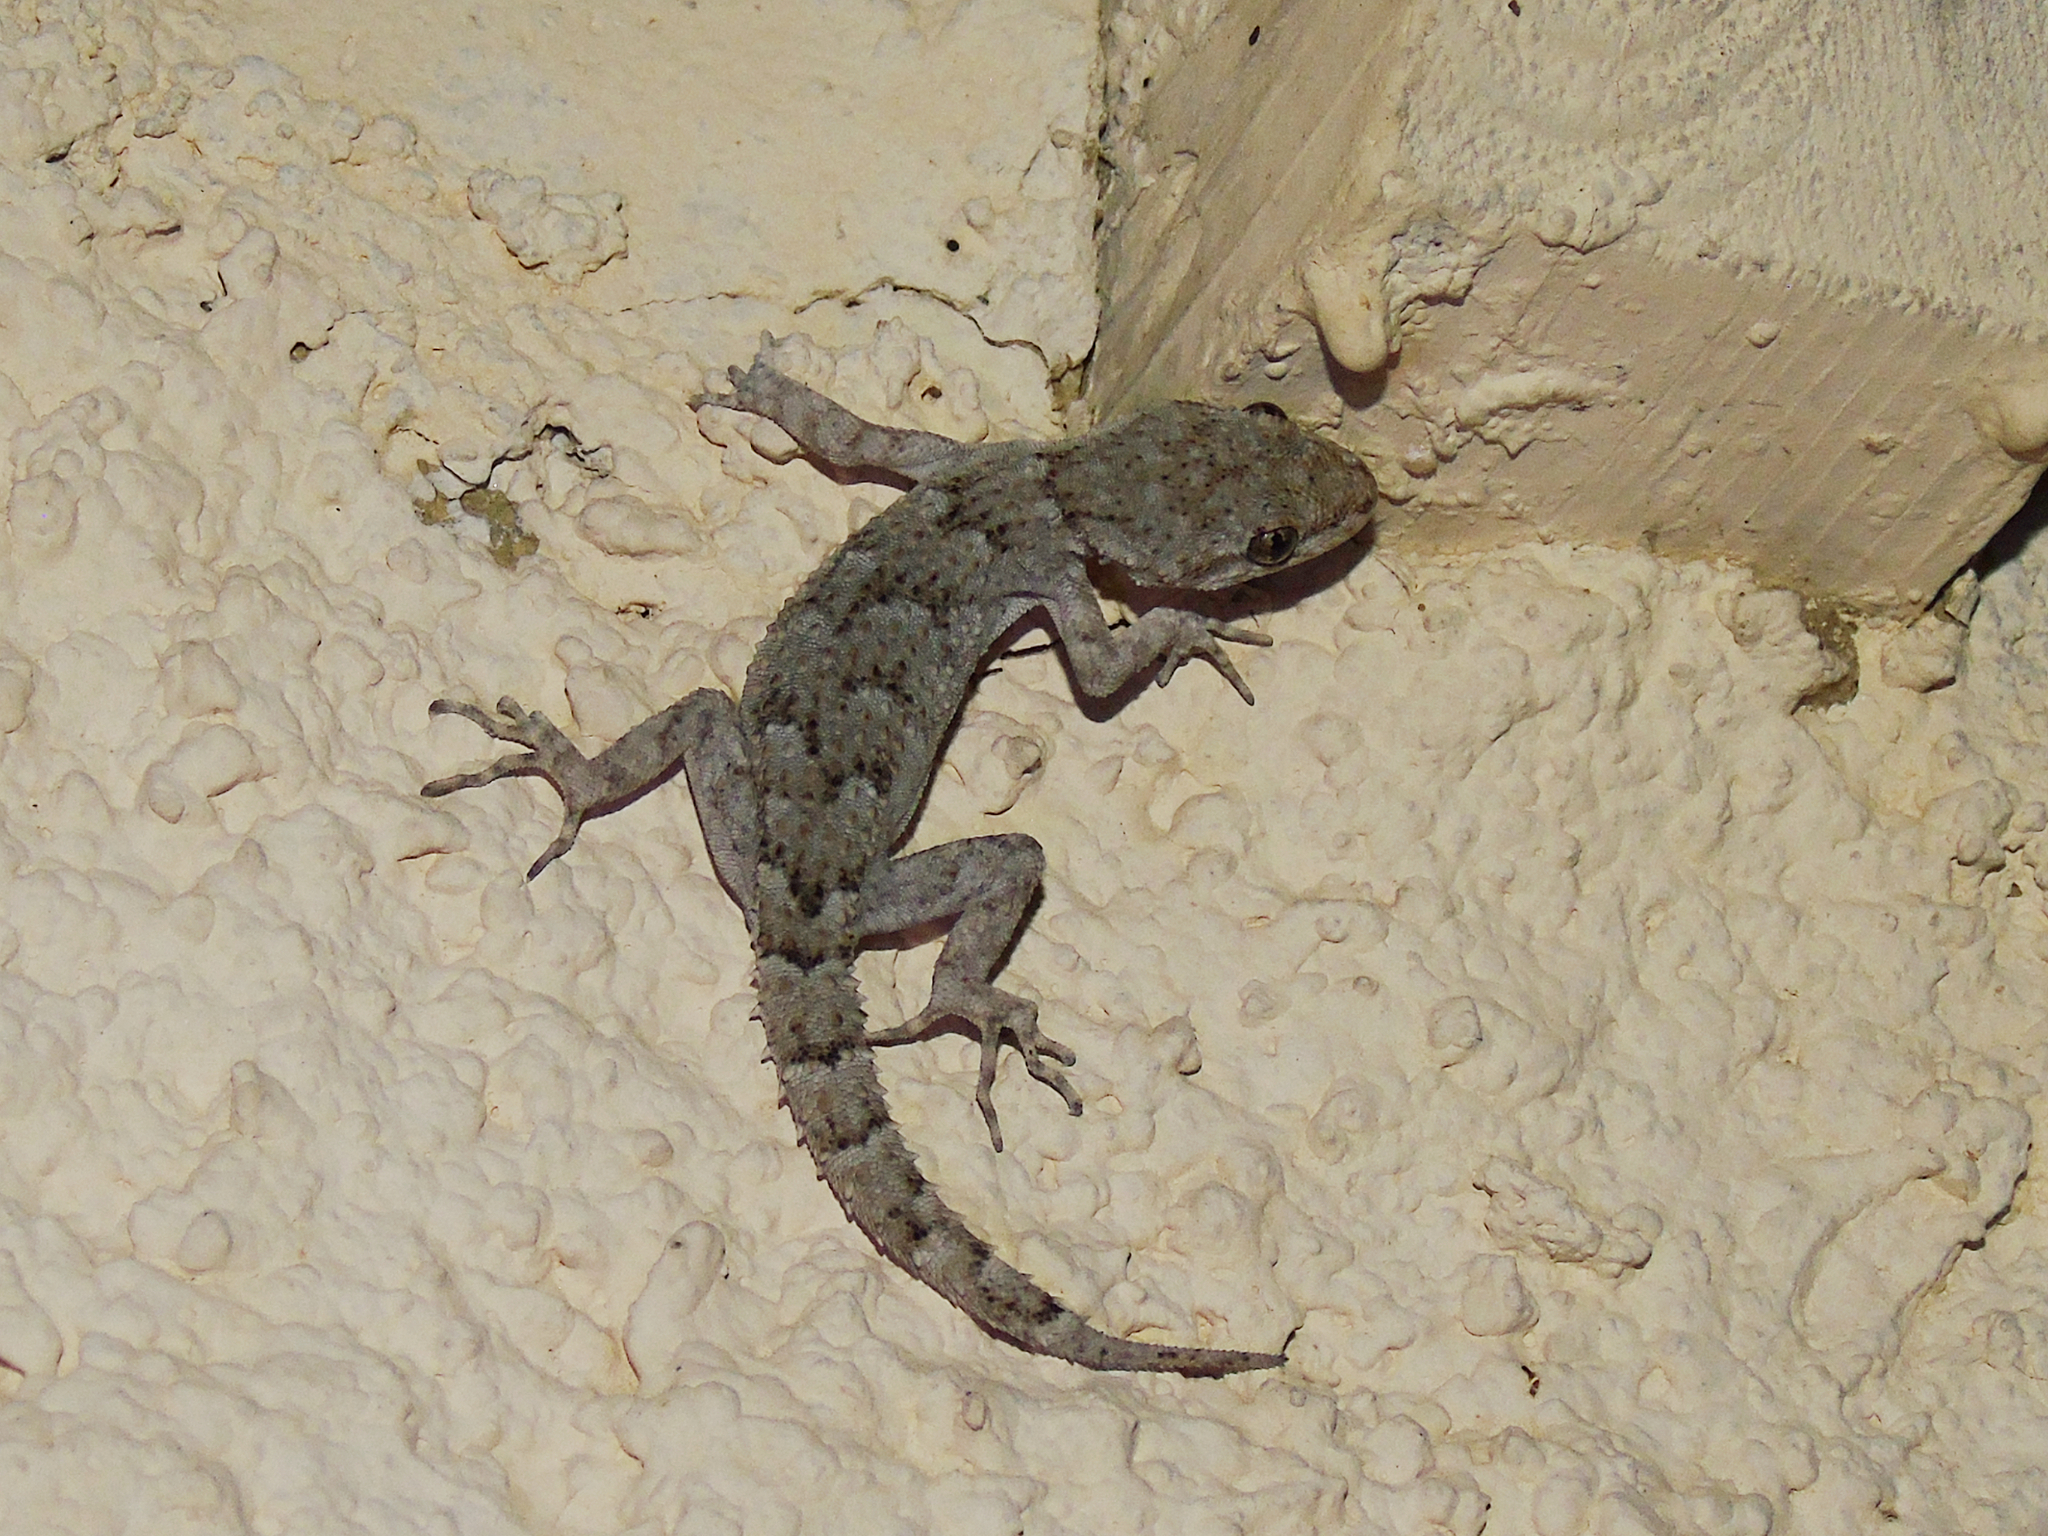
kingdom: Animalia
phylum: Chordata
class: Squamata
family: Gekkonidae
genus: Mediodactylus
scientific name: Mediodactylus kotschyi
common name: Kotschy's gecko
